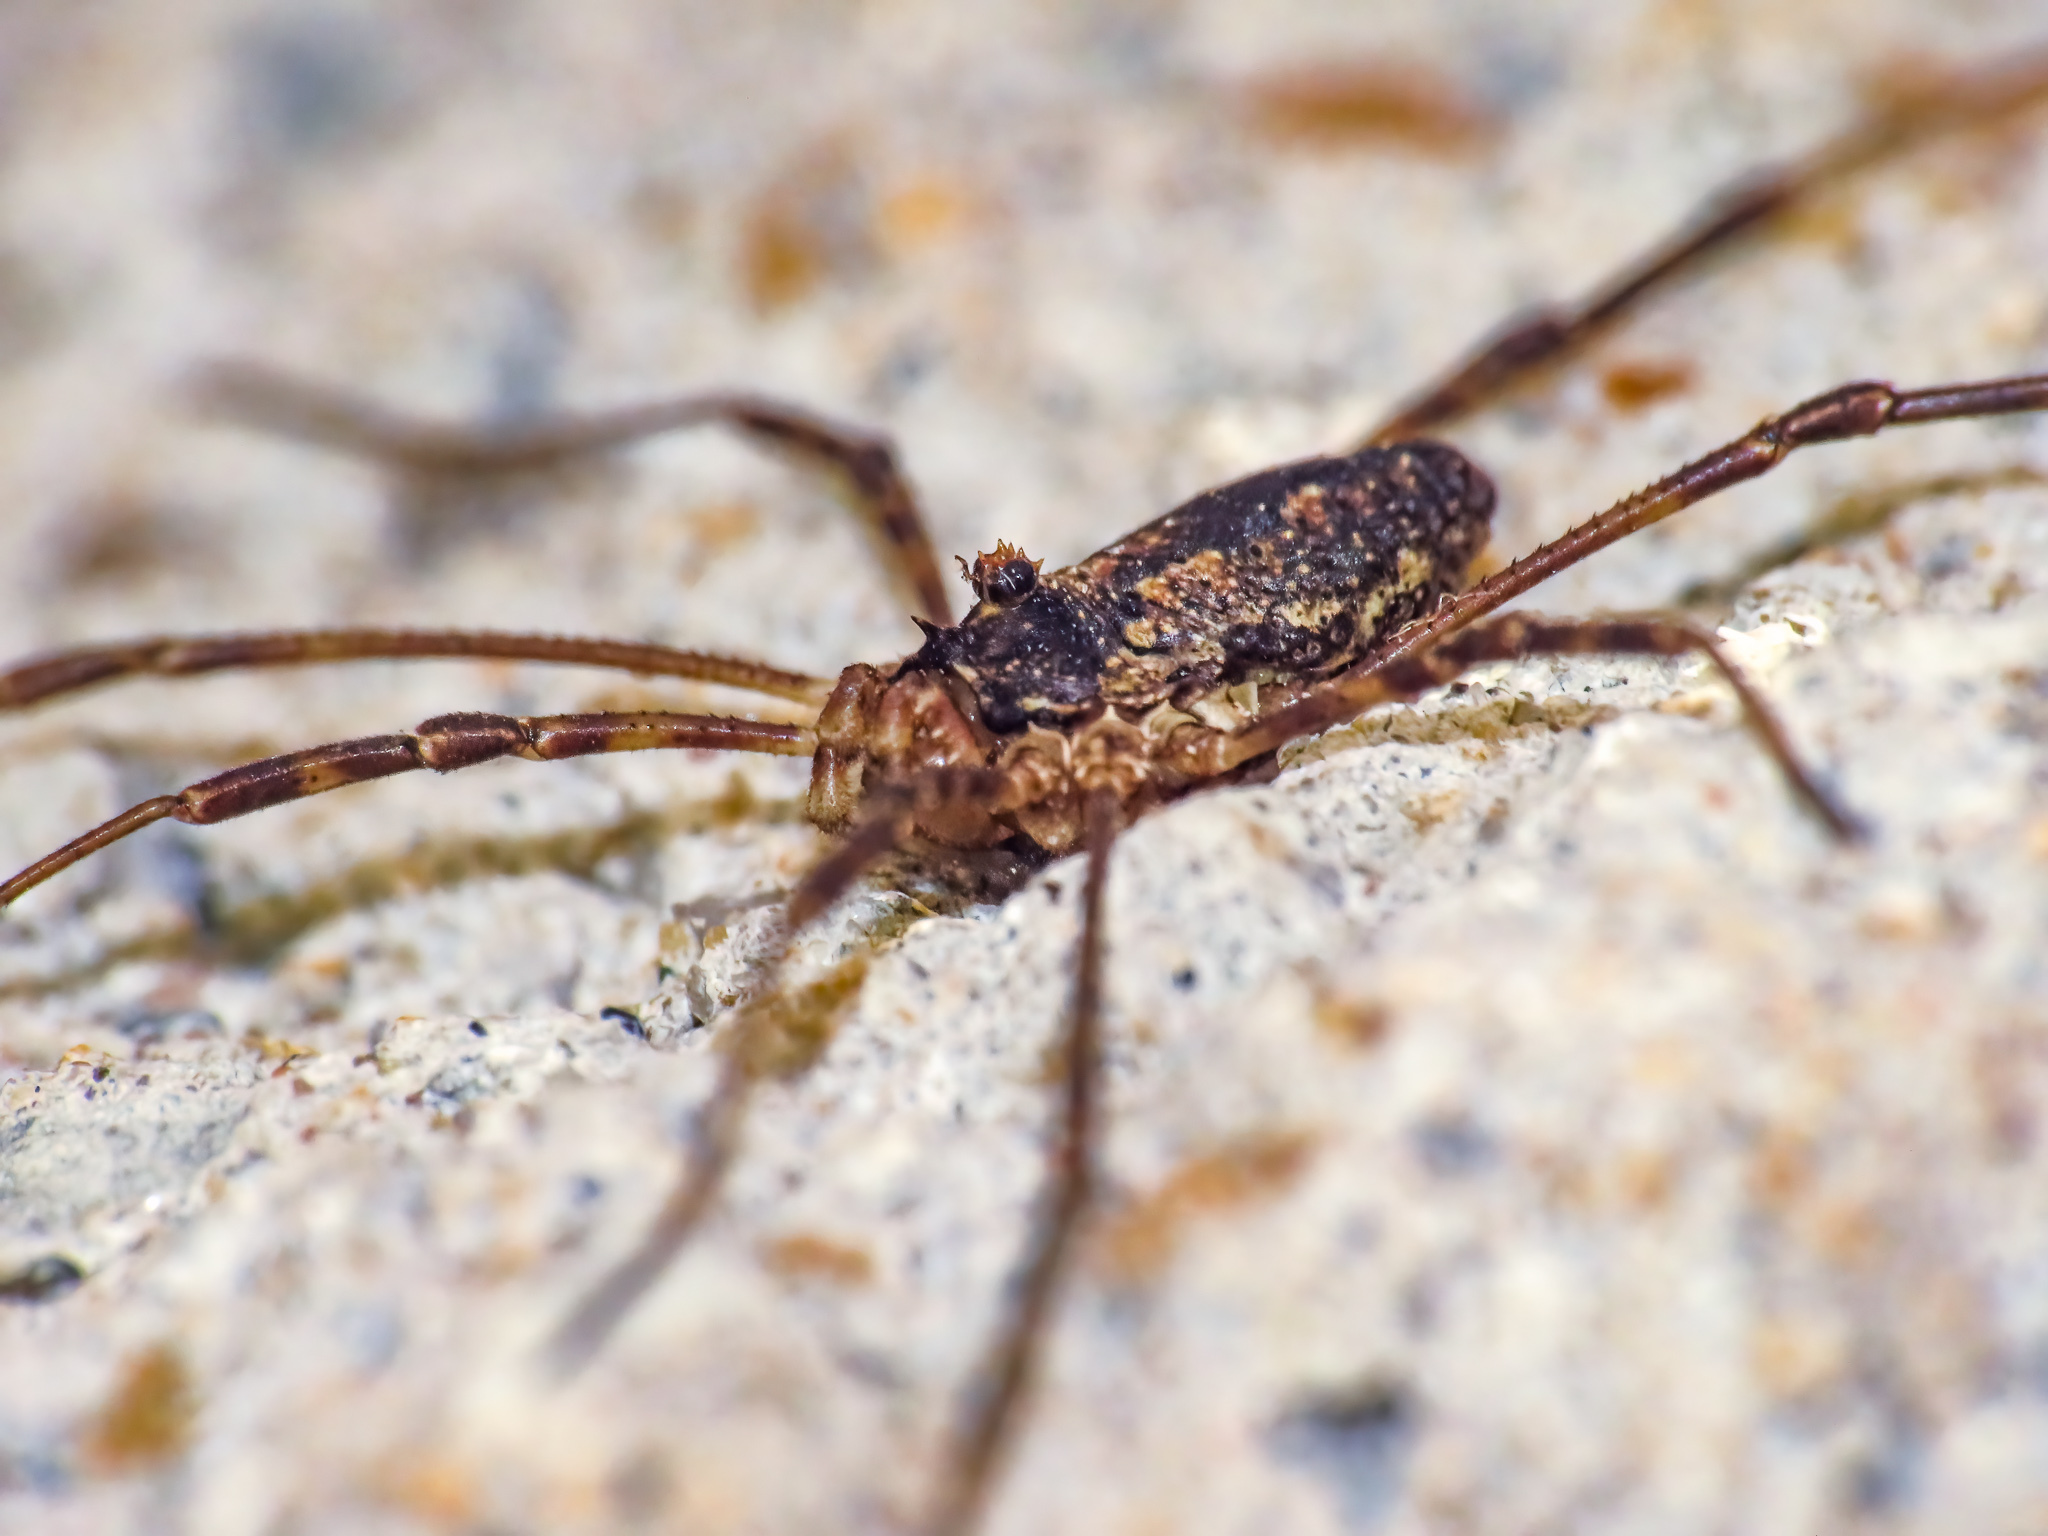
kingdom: Animalia
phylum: Arthropoda
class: Arachnida
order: Opiliones
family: Phalangiidae
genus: Odiellus
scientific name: Odiellus pictus
